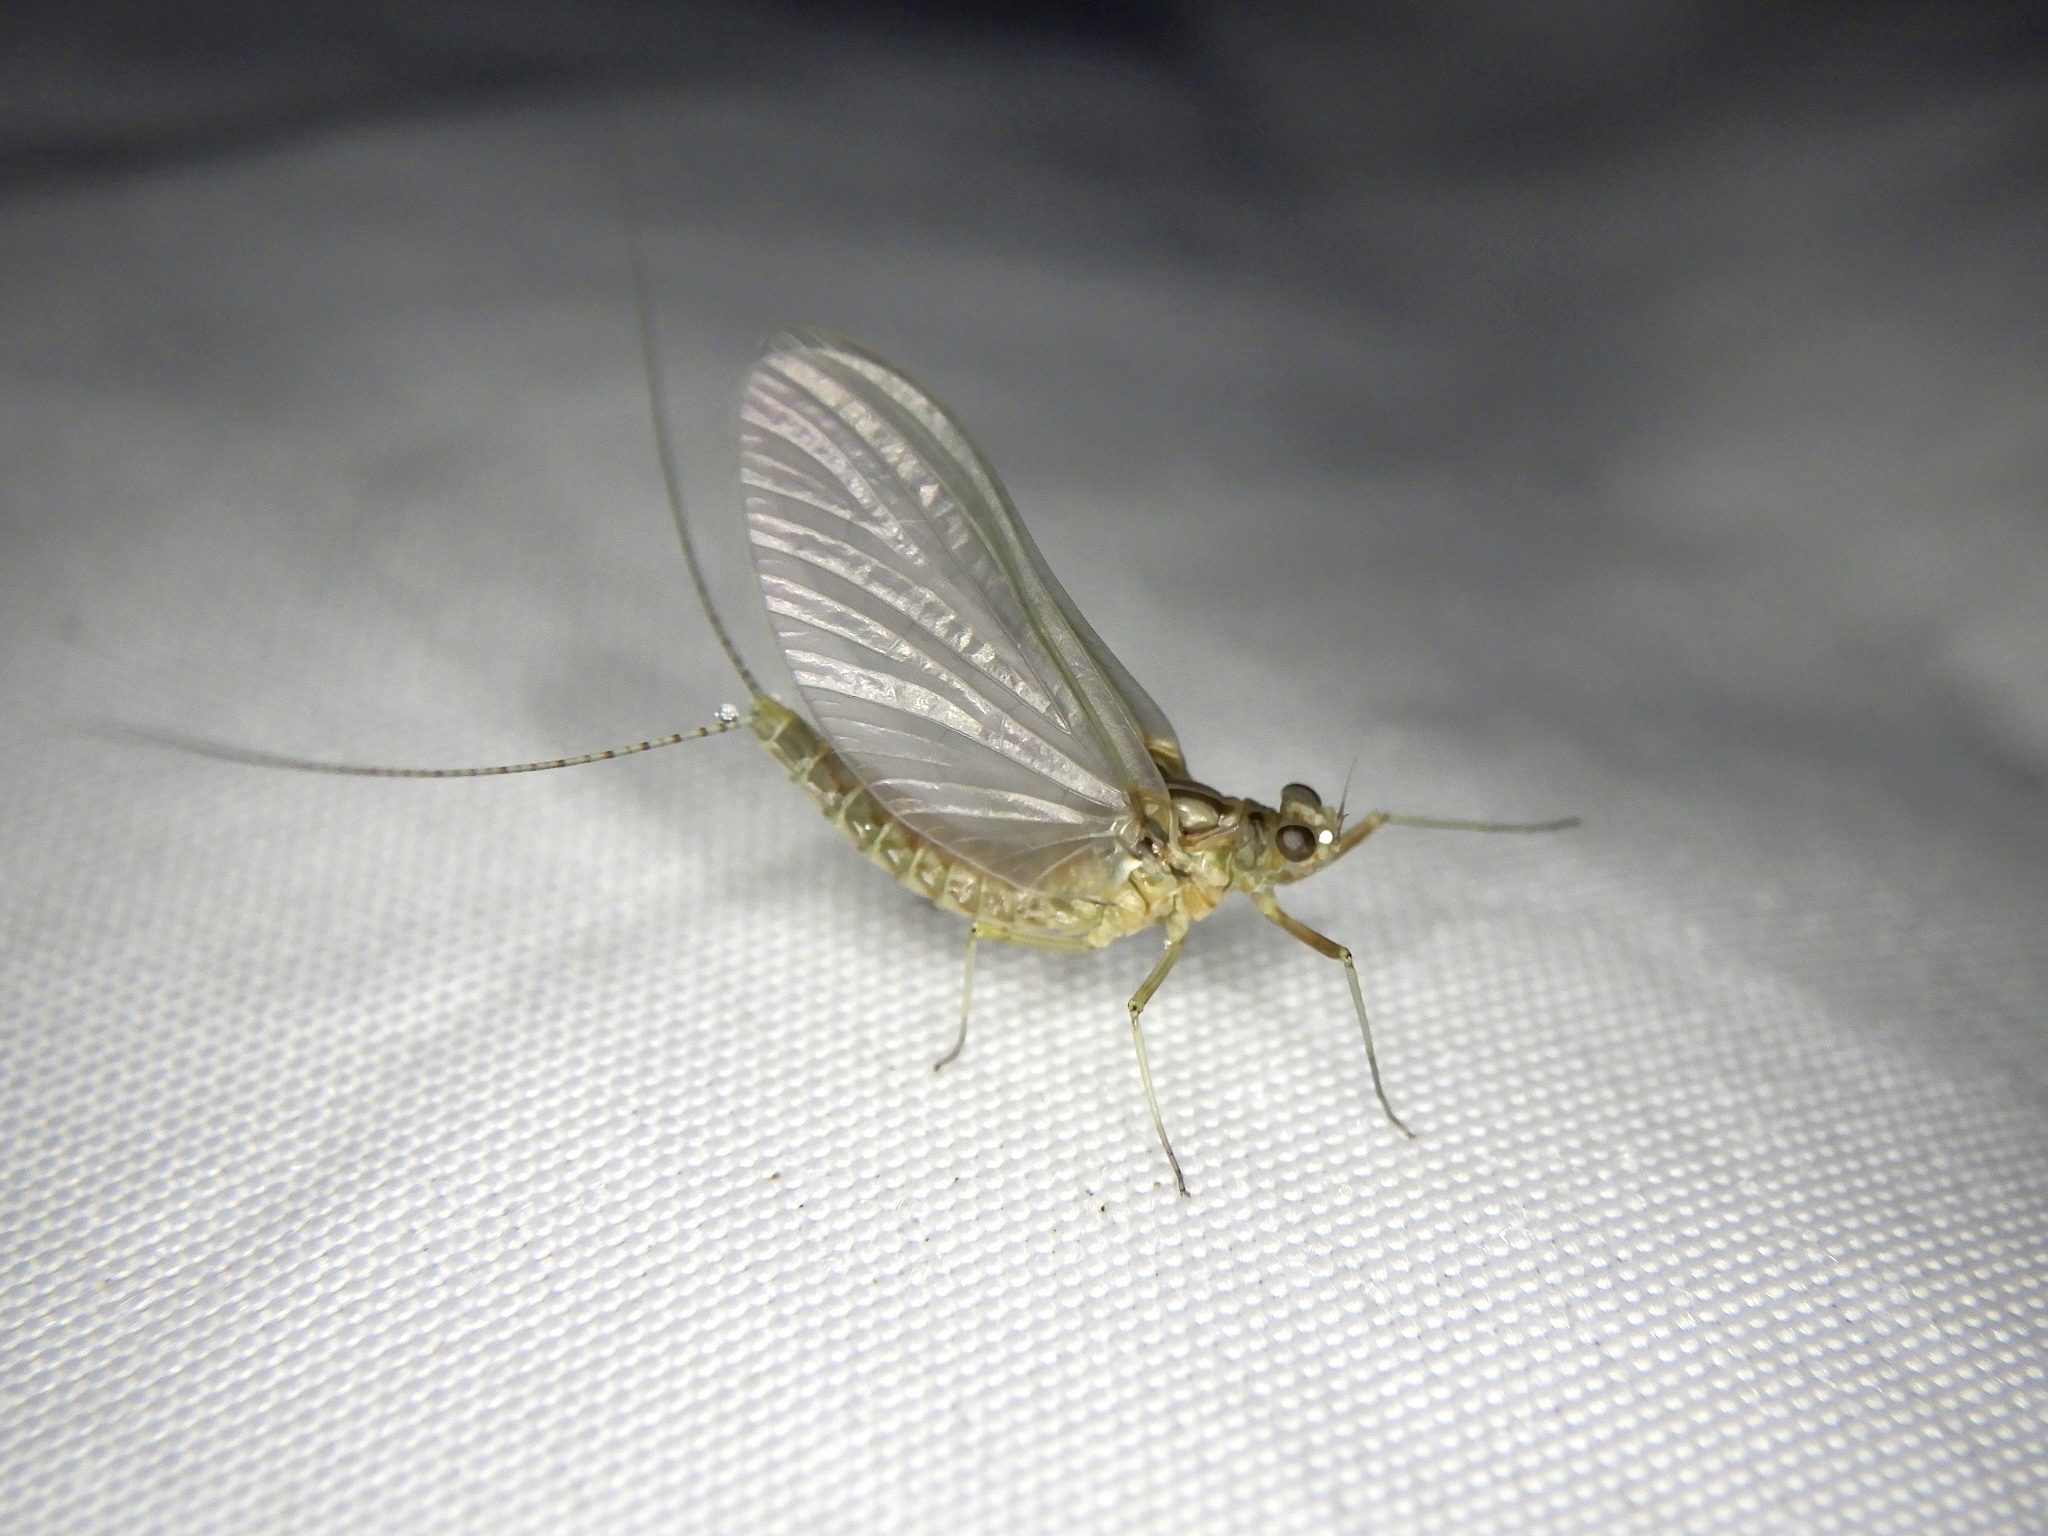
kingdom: Animalia
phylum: Arthropoda
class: Insecta
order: Ephemeroptera
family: Baetidae
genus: Cloeon
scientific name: Cloeon dipterum
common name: Pond olive
